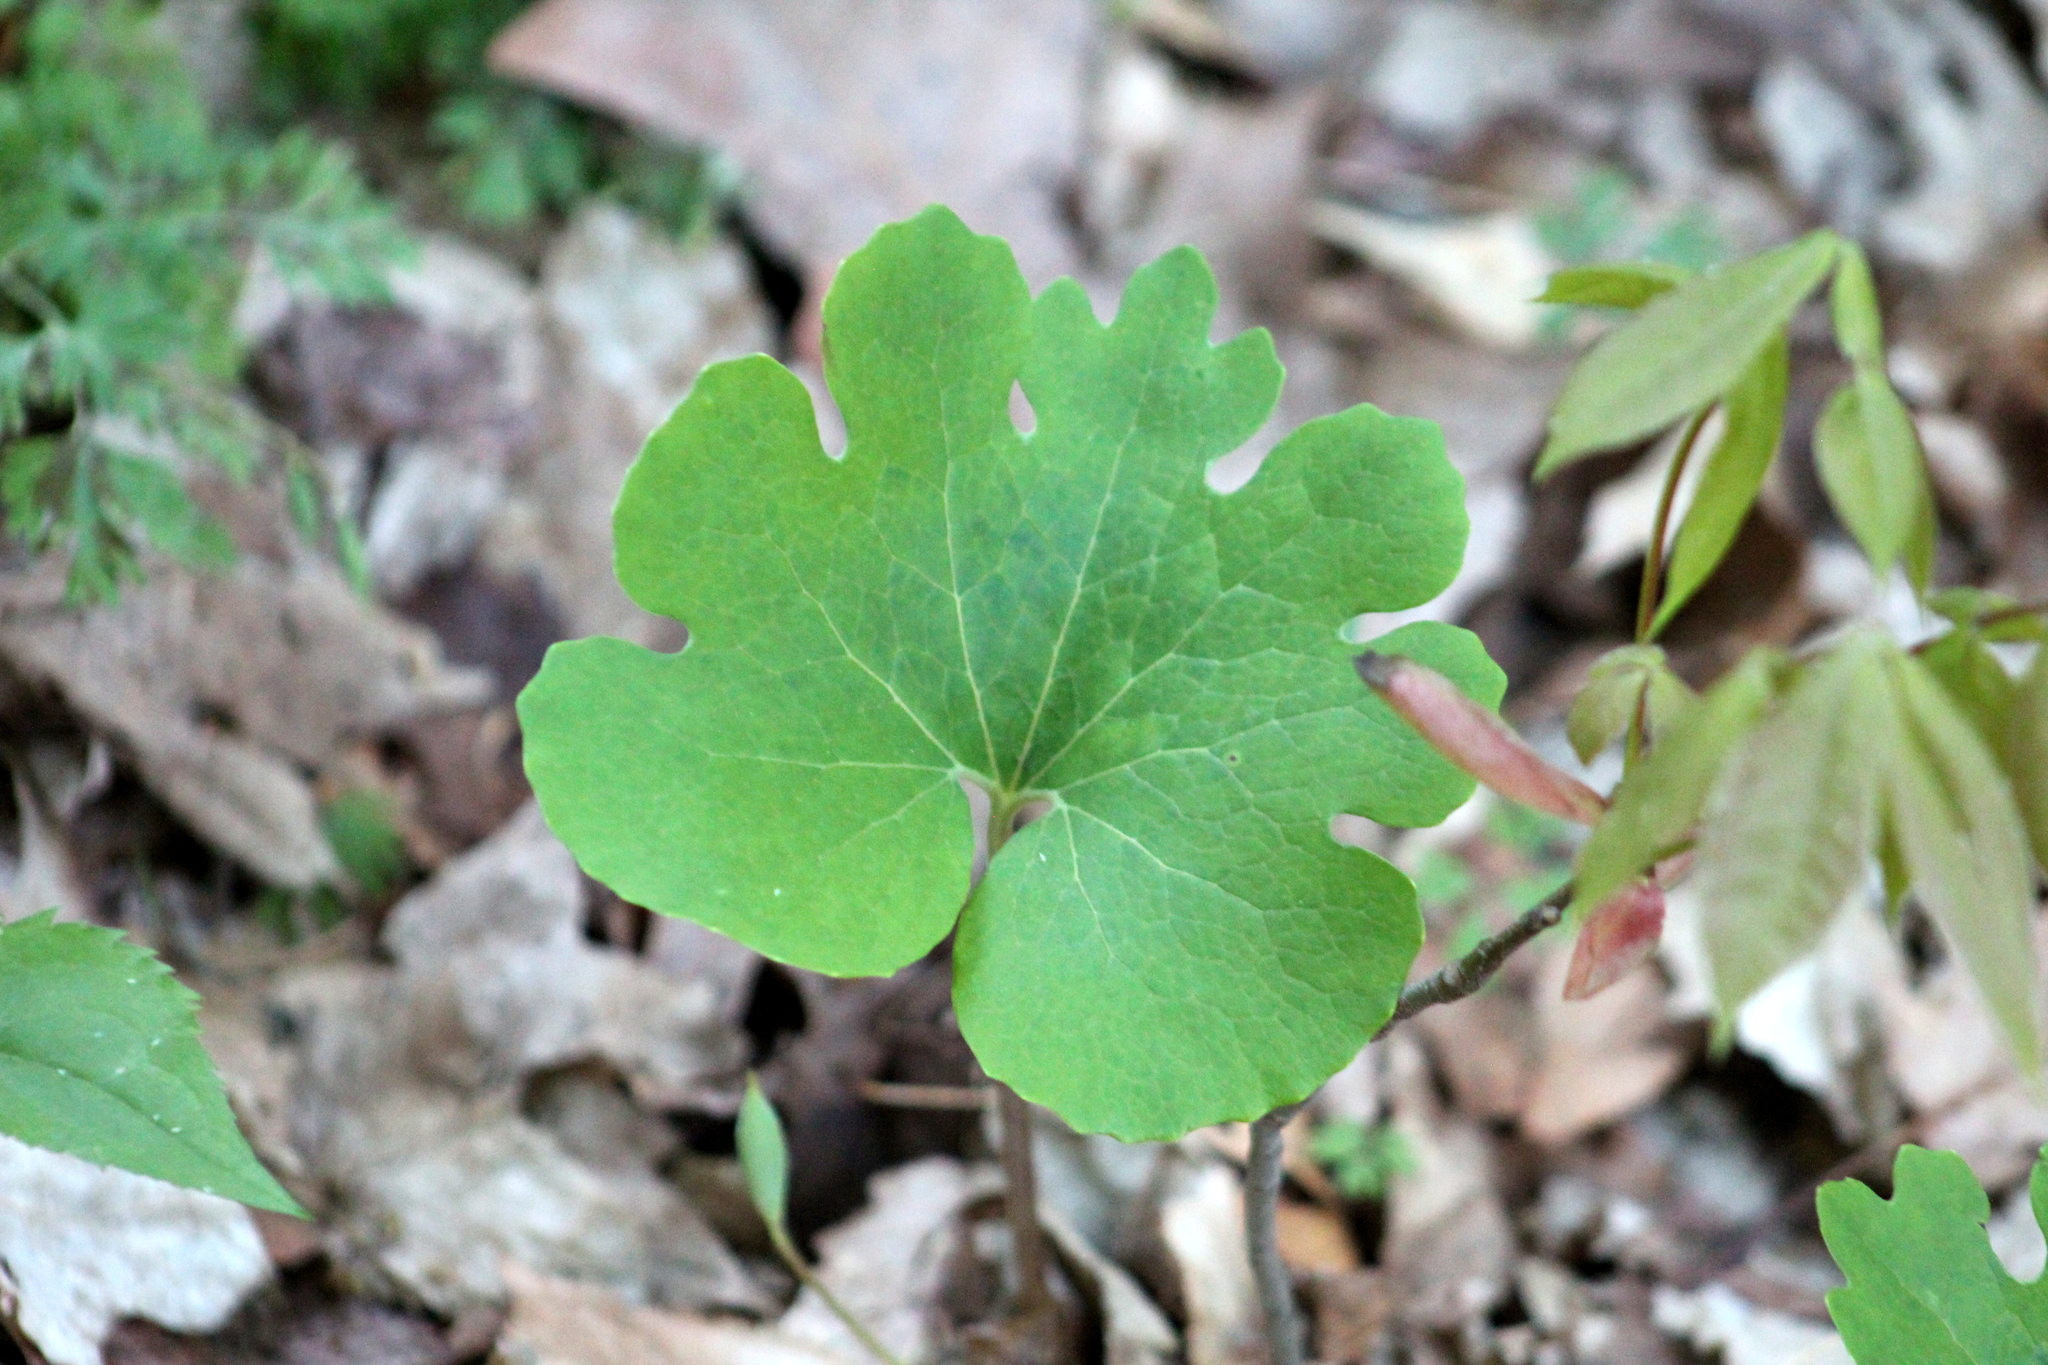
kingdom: Plantae
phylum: Tracheophyta
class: Magnoliopsida
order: Ranunculales
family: Papaveraceae
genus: Sanguinaria
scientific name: Sanguinaria canadensis
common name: Bloodroot
